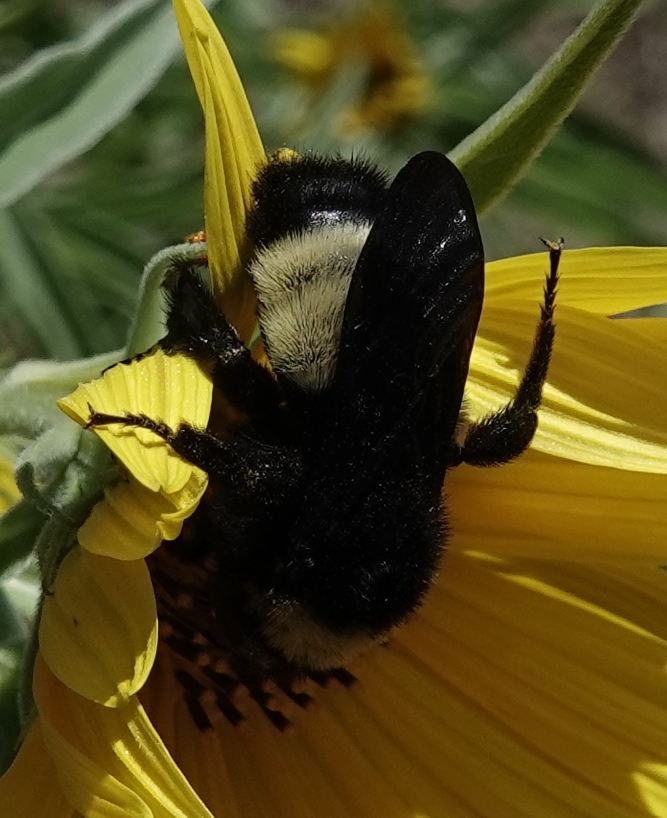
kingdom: Animalia
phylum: Arthropoda
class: Insecta
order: Hymenoptera
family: Apidae
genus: Bombus
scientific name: Bombus pensylvanicus
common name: Bumble bee
